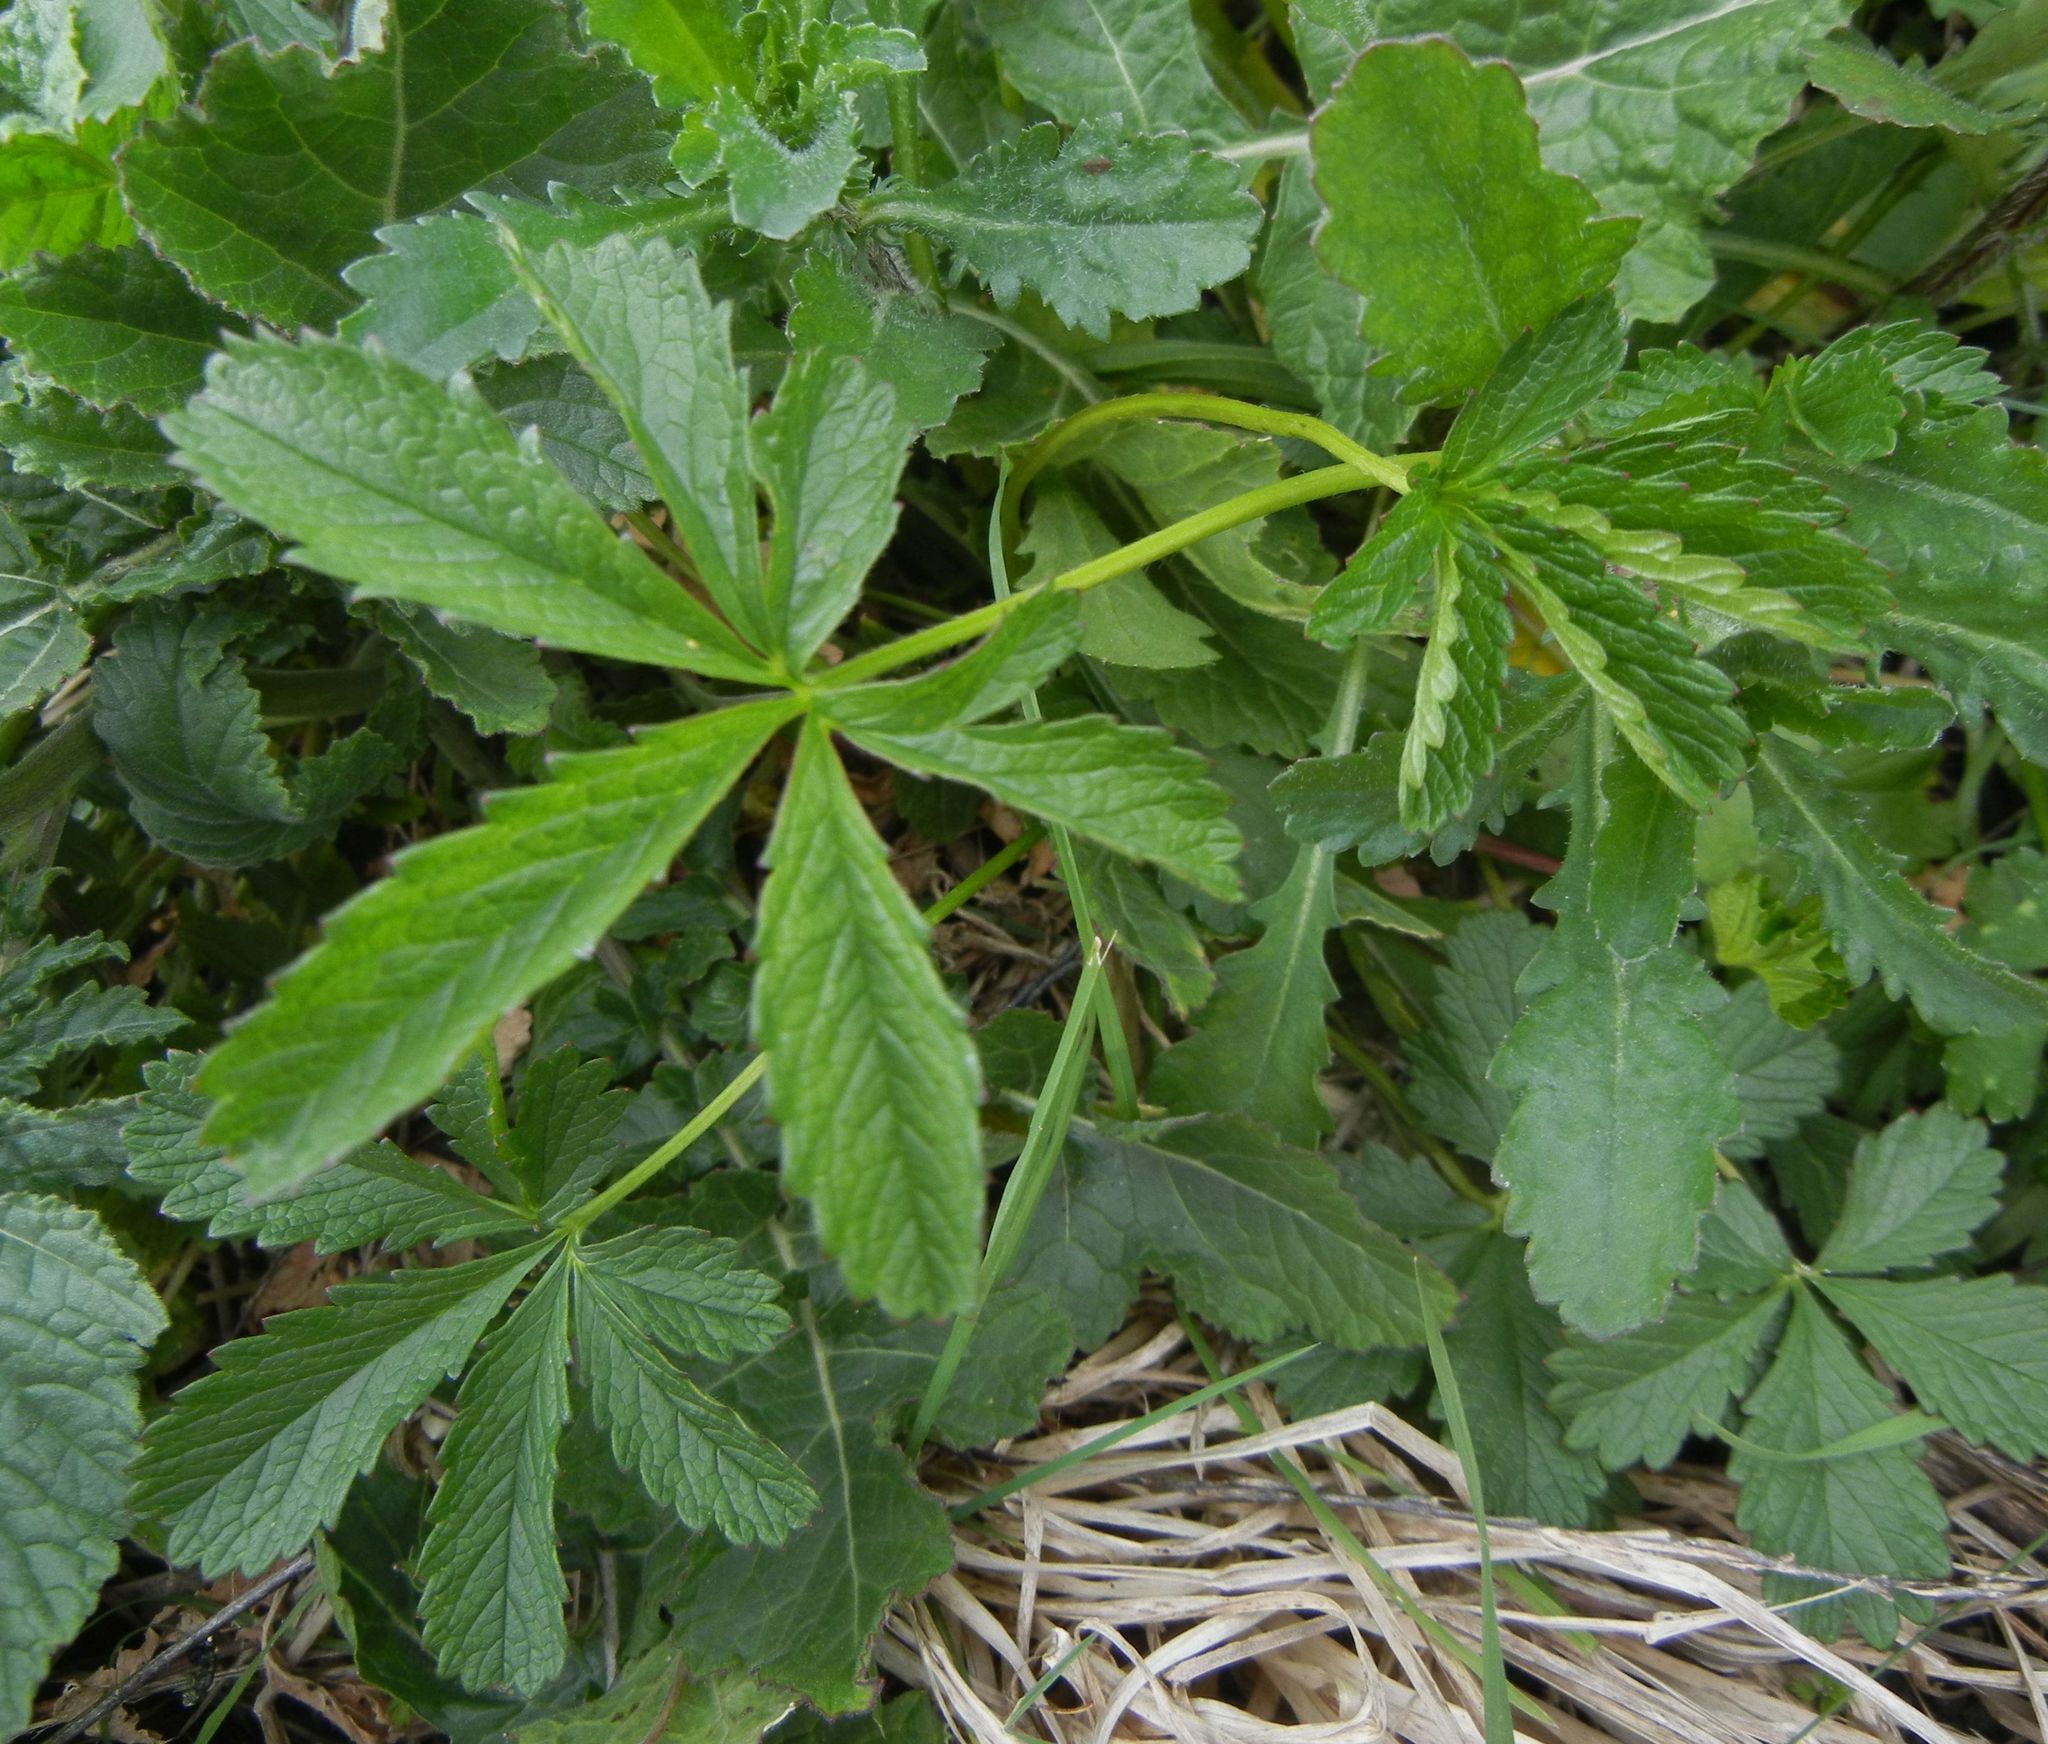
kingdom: Plantae
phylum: Tracheophyta
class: Magnoliopsida
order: Rosales
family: Rosaceae
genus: Potentilla
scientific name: Potentilla reptans
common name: Creeping cinquefoil
